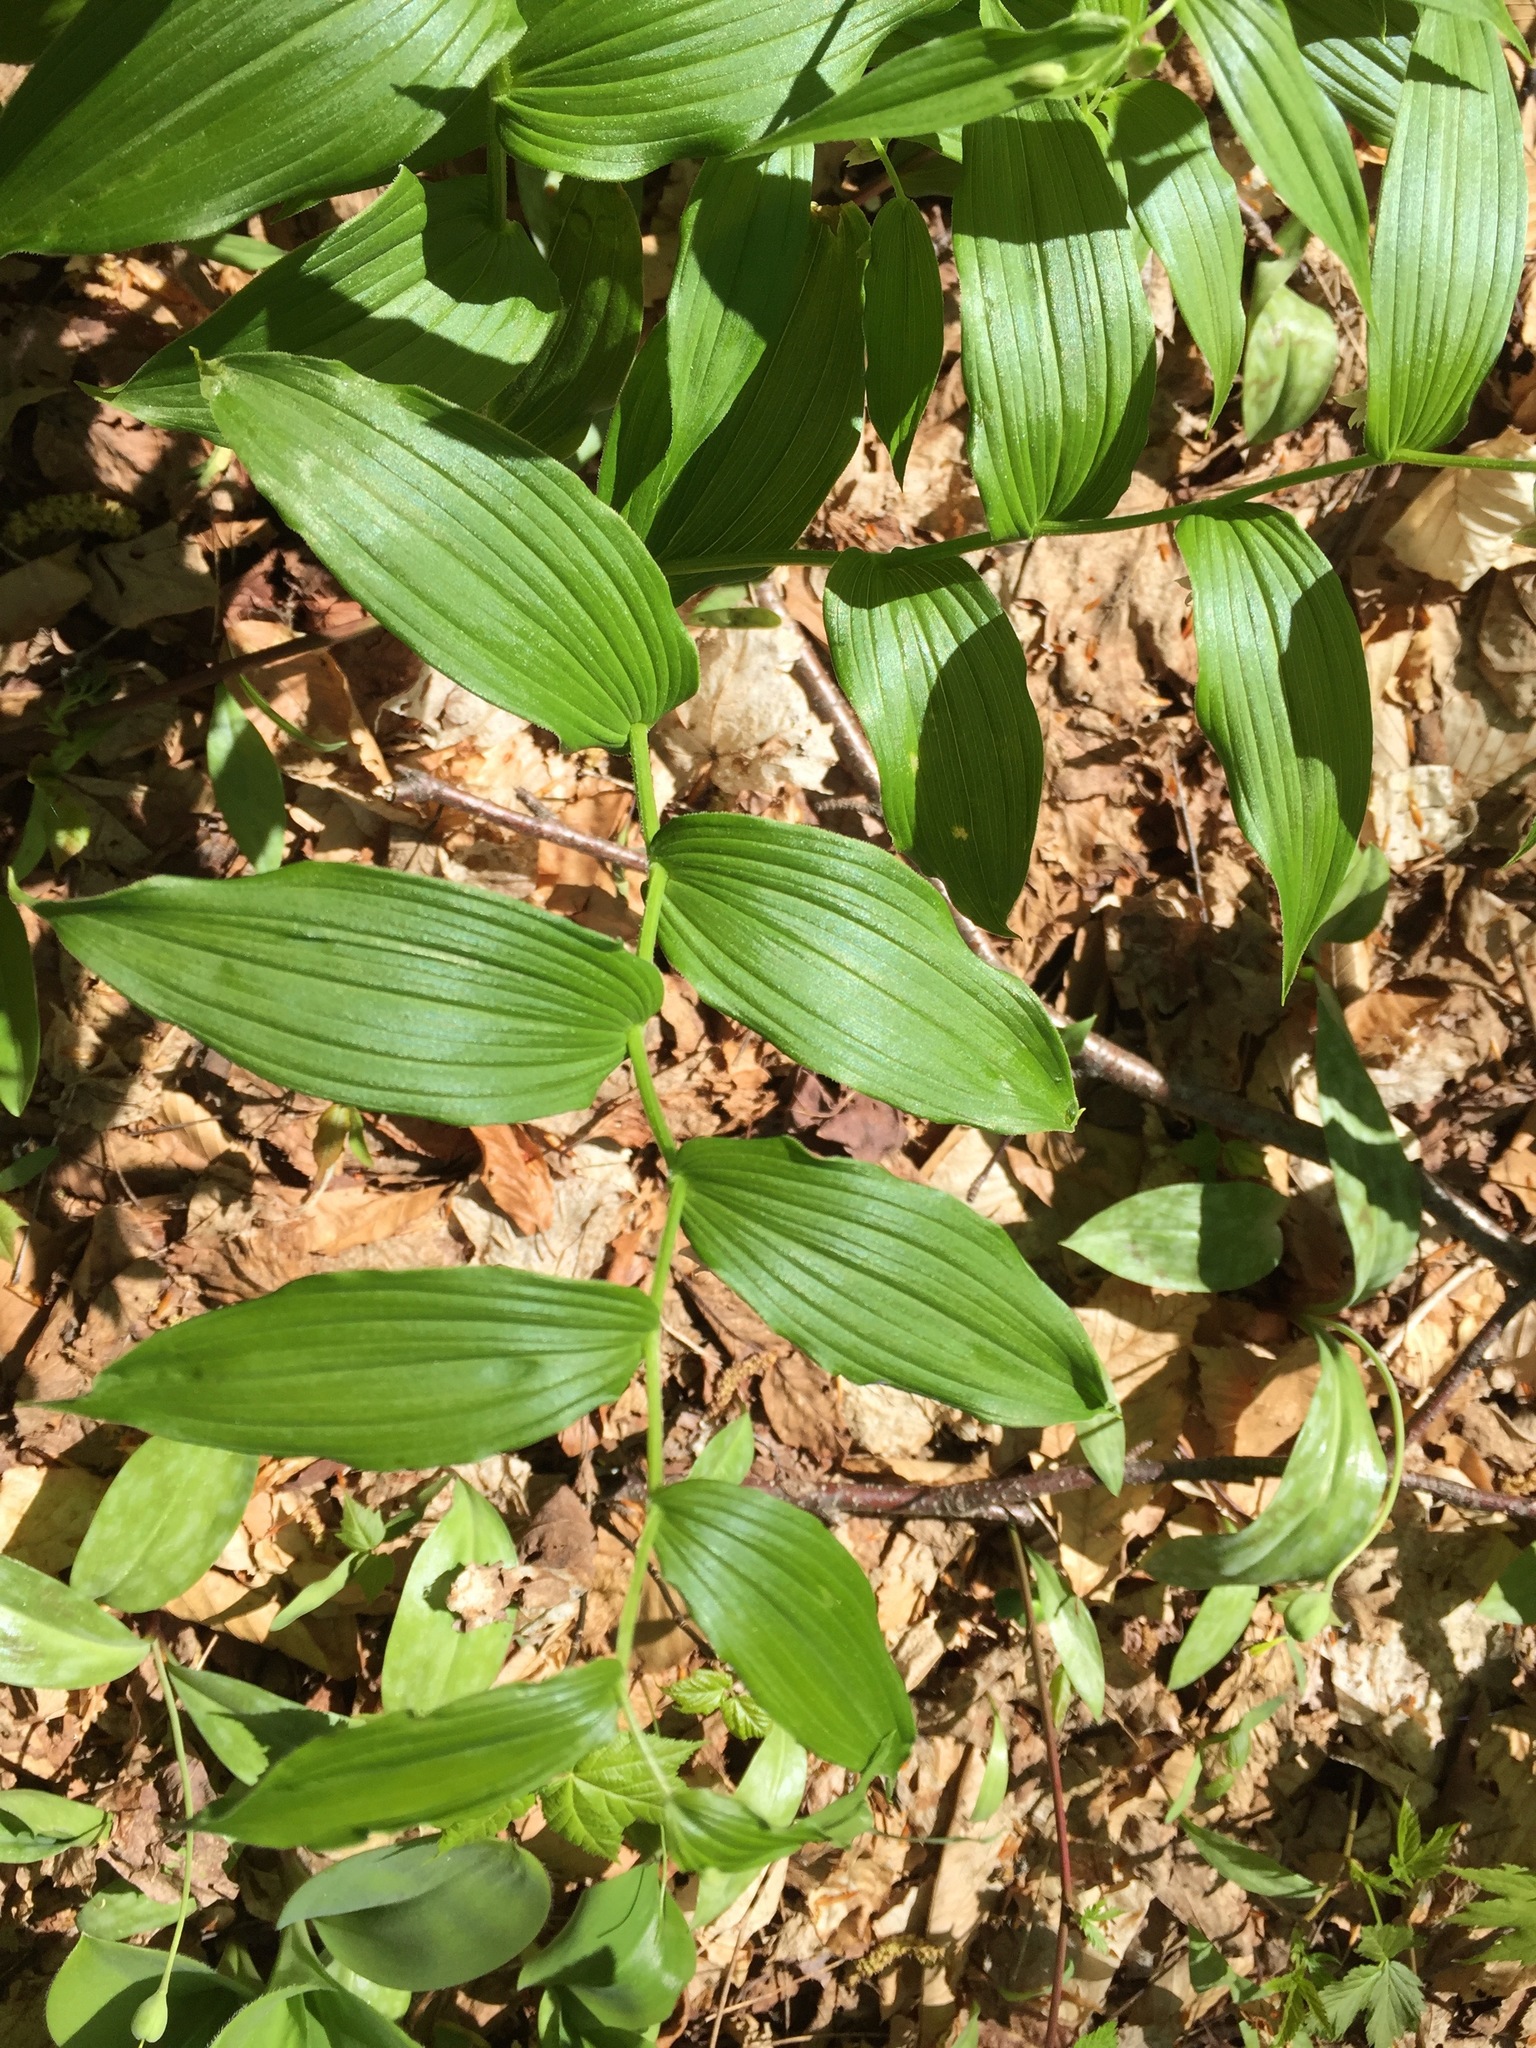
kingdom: Plantae
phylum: Tracheophyta
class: Liliopsida
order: Liliales
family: Liliaceae
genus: Streptopus
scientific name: Streptopus lanceolatus
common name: Rose mandarin
